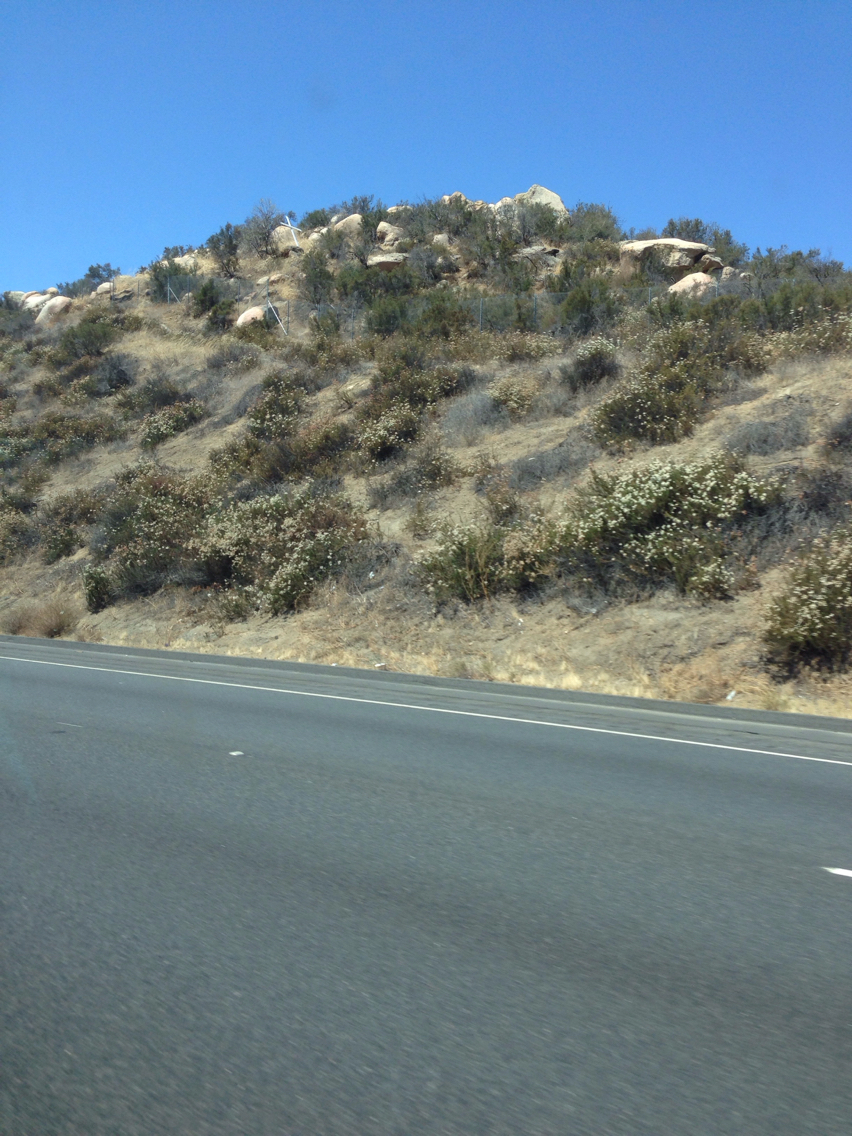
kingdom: Plantae
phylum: Tracheophyta
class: Magnoliopsida
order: Caryophyllales
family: Polygonaceae
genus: Eriogonum
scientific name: Eriogonum fasciculatum
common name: California wild buckwheat
